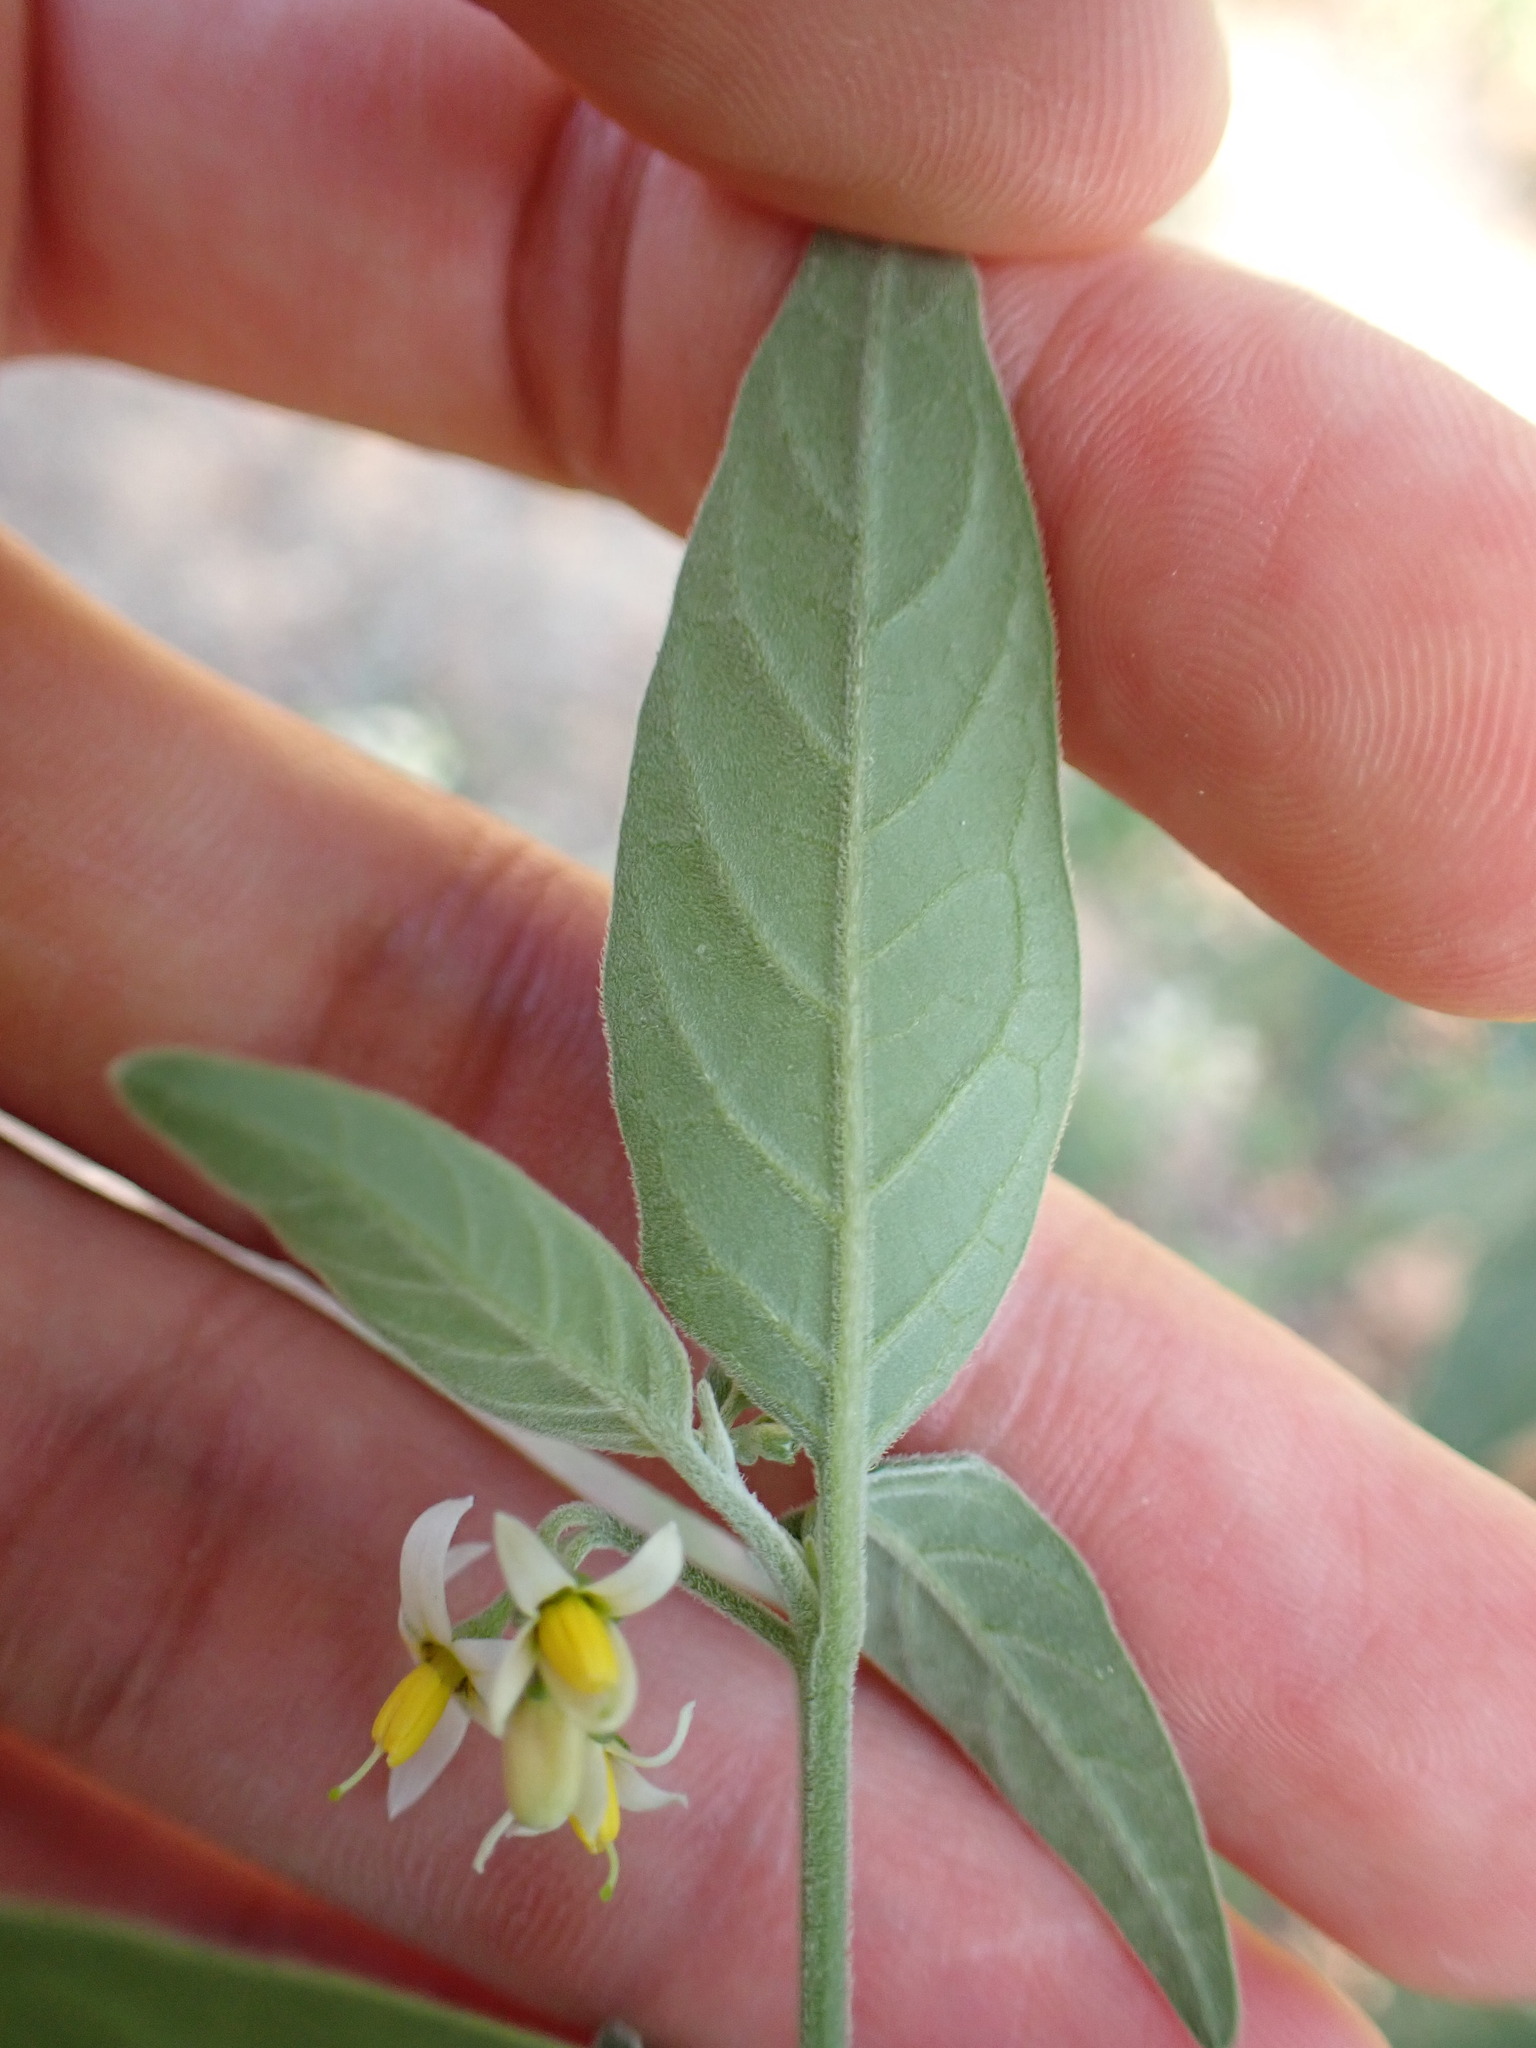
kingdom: Plantae
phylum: Tracheophyta
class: Magnoliopsida
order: Solanales
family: Solanaceae
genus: Solanum
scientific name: Solanum chenopodioides
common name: Tall nightshade
